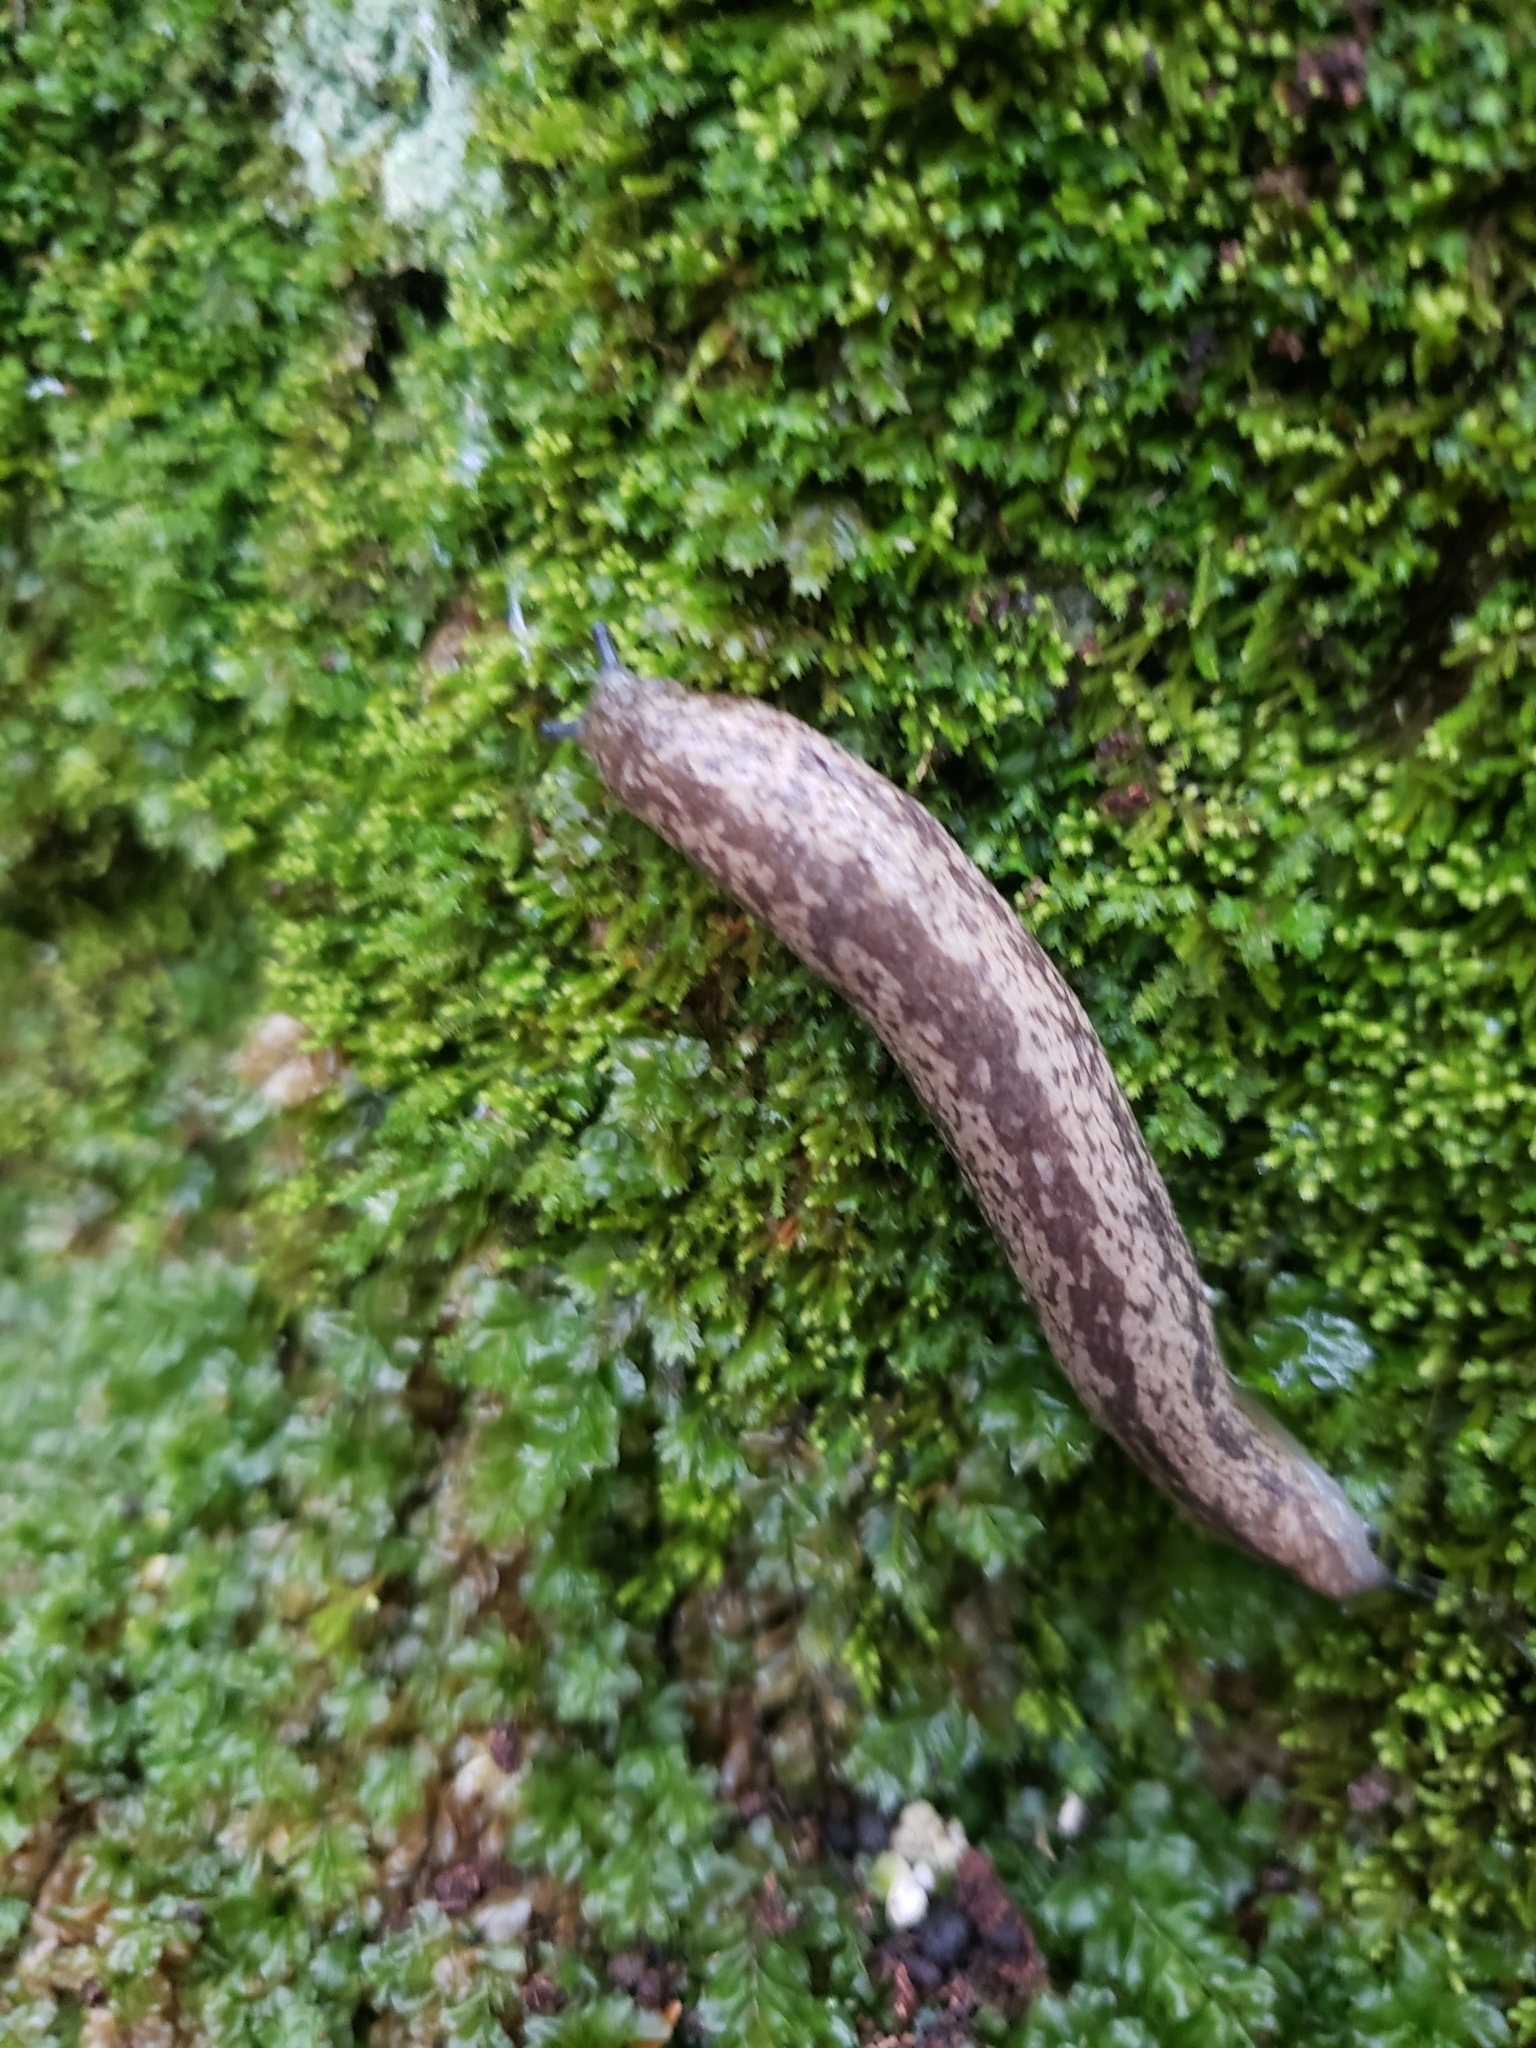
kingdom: Animalia
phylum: Mollusca
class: Gastropoda
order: Stylommatophora
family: Philomycidae
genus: Philomycus
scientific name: Philomycus flexuolaris
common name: Winding mantleslug
